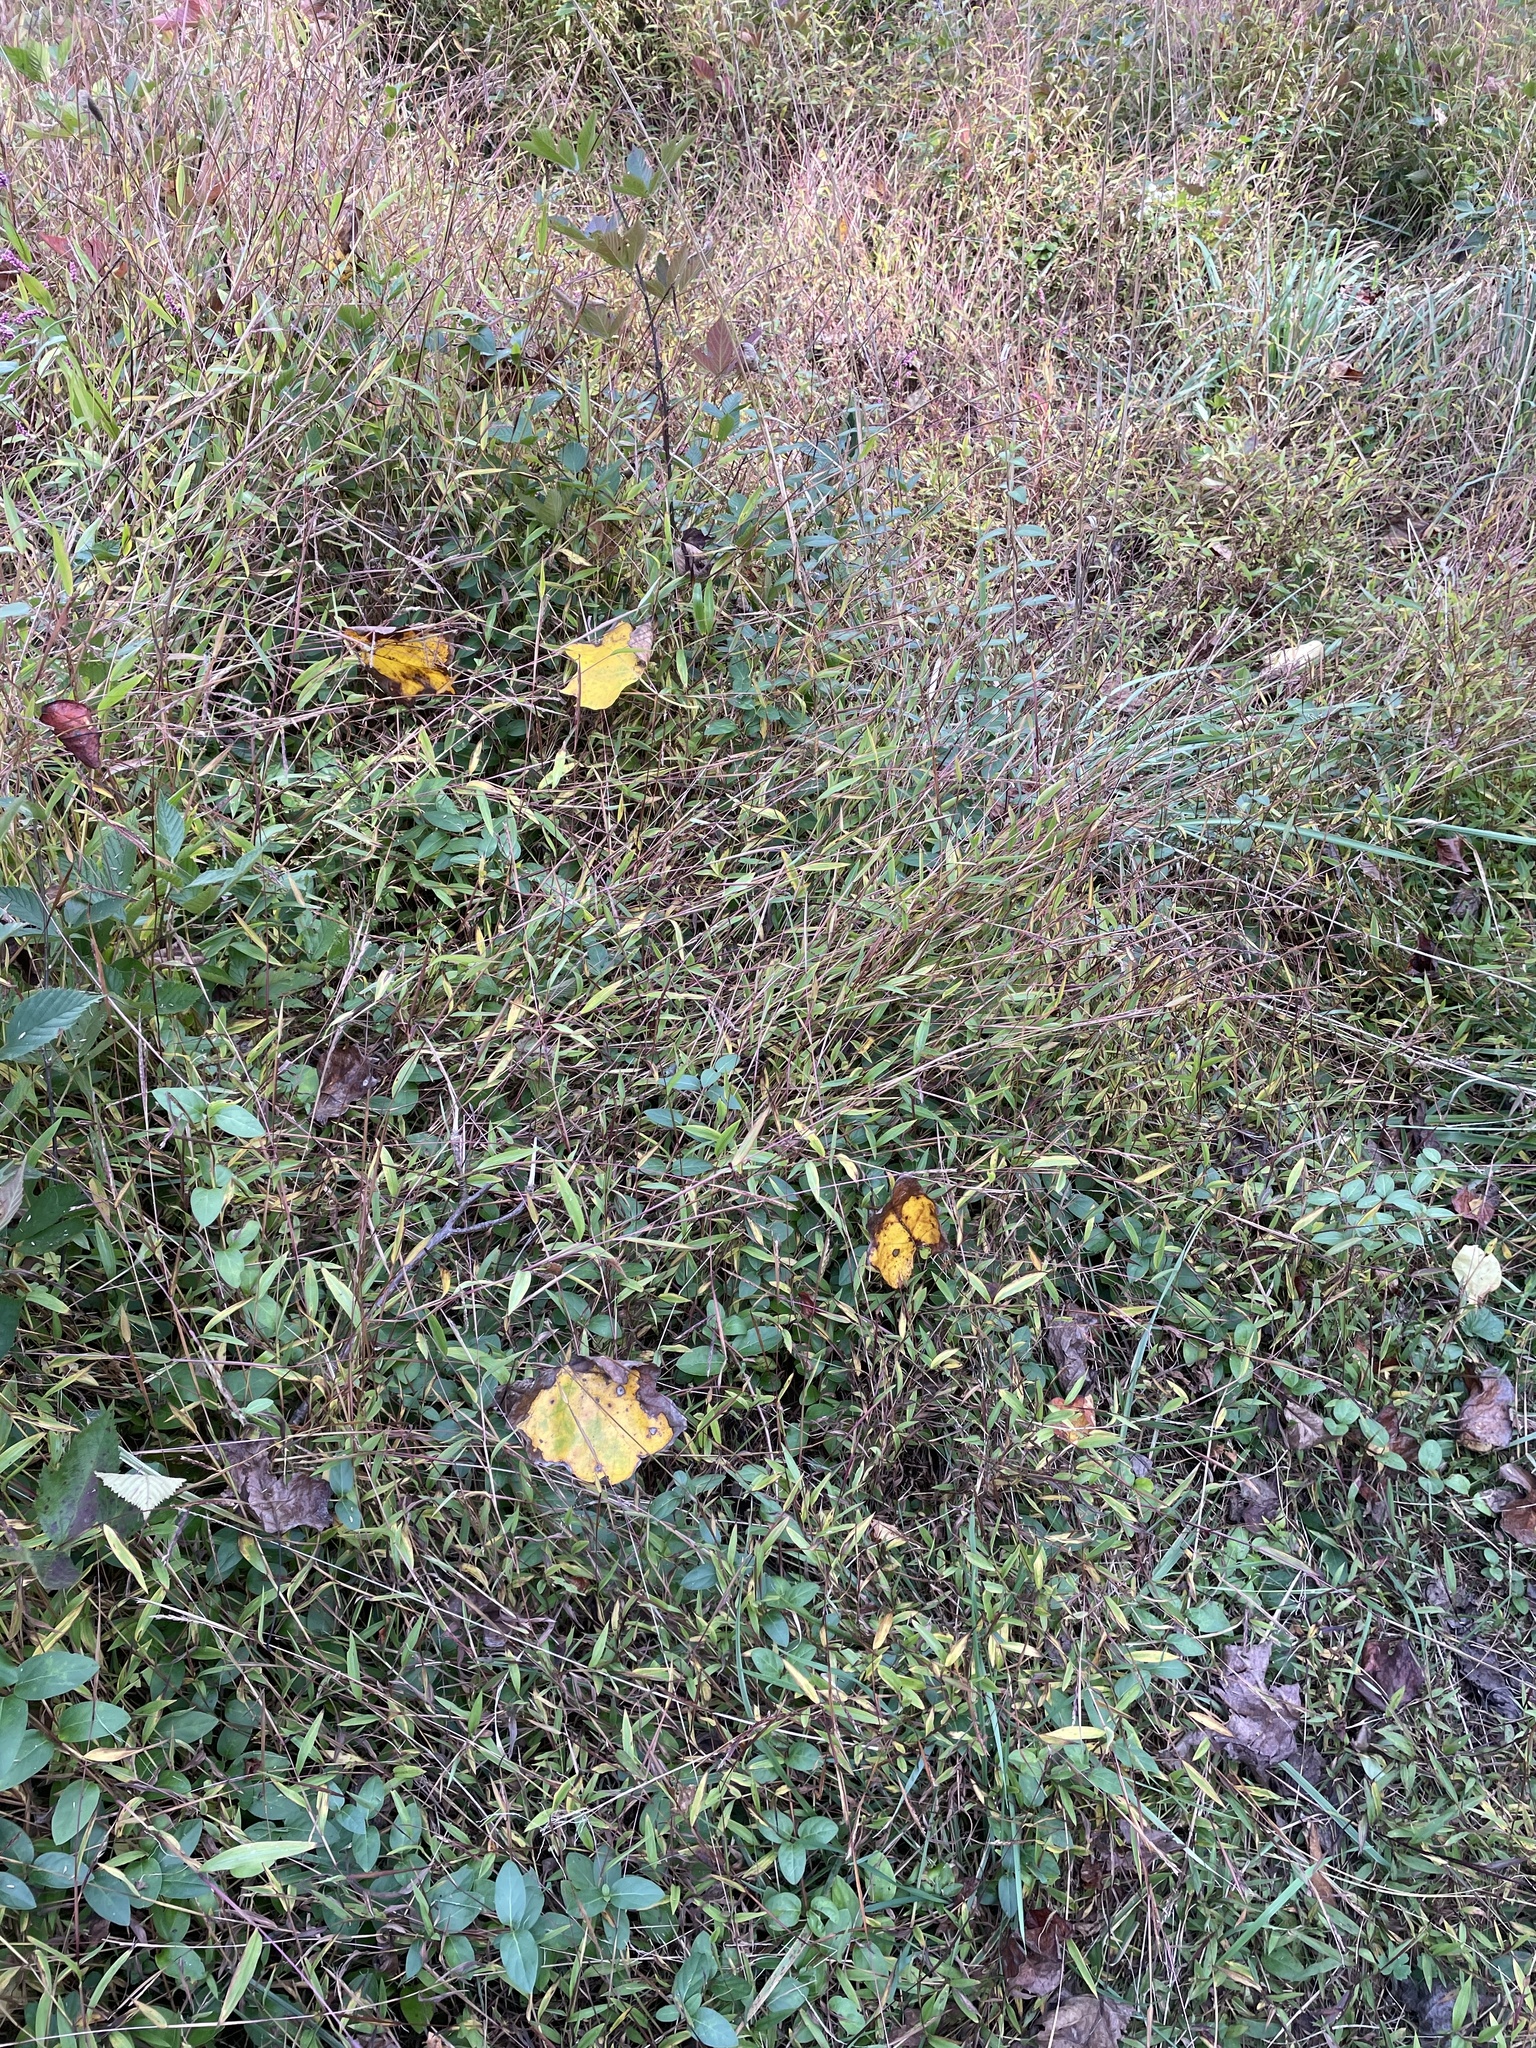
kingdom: Plantae
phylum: Tracheophyta
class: Liliopsida
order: Poales
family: Poaceae
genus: Microstegium
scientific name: Microstegium vimineum
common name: Japanese stiltgrass
